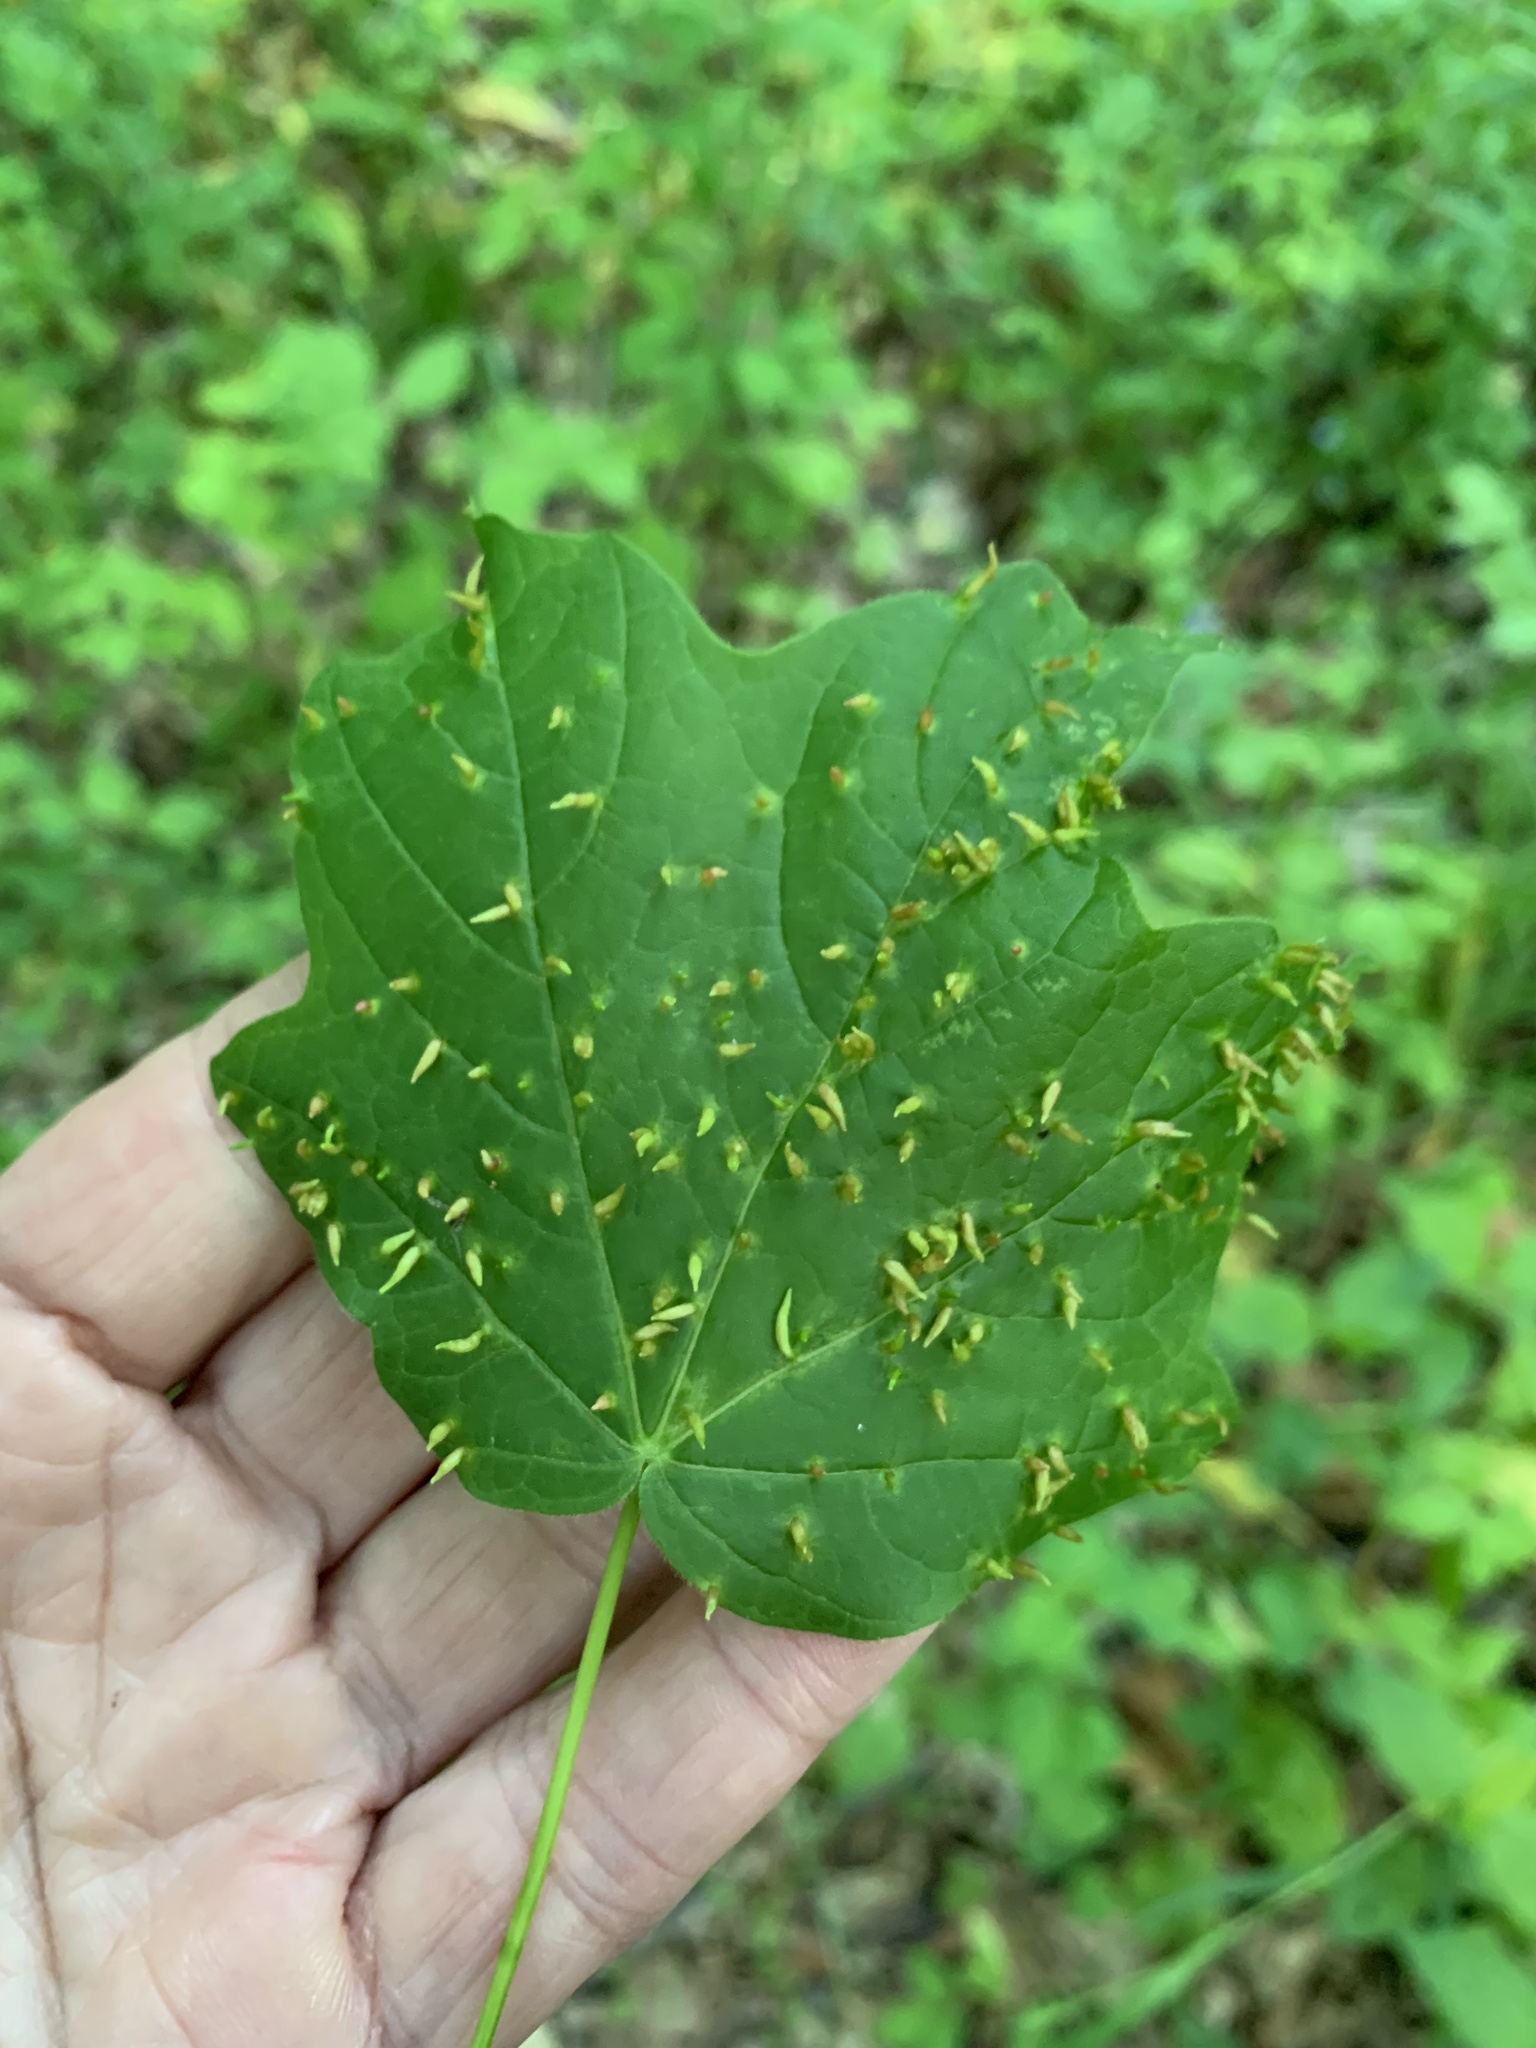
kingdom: Animalia
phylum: Arthropoda
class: Arachnida
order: Trombidiformes
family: Eriophyidae
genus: Vasates
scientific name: Vasates aceriscrumena
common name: Maple spindle gall mite
